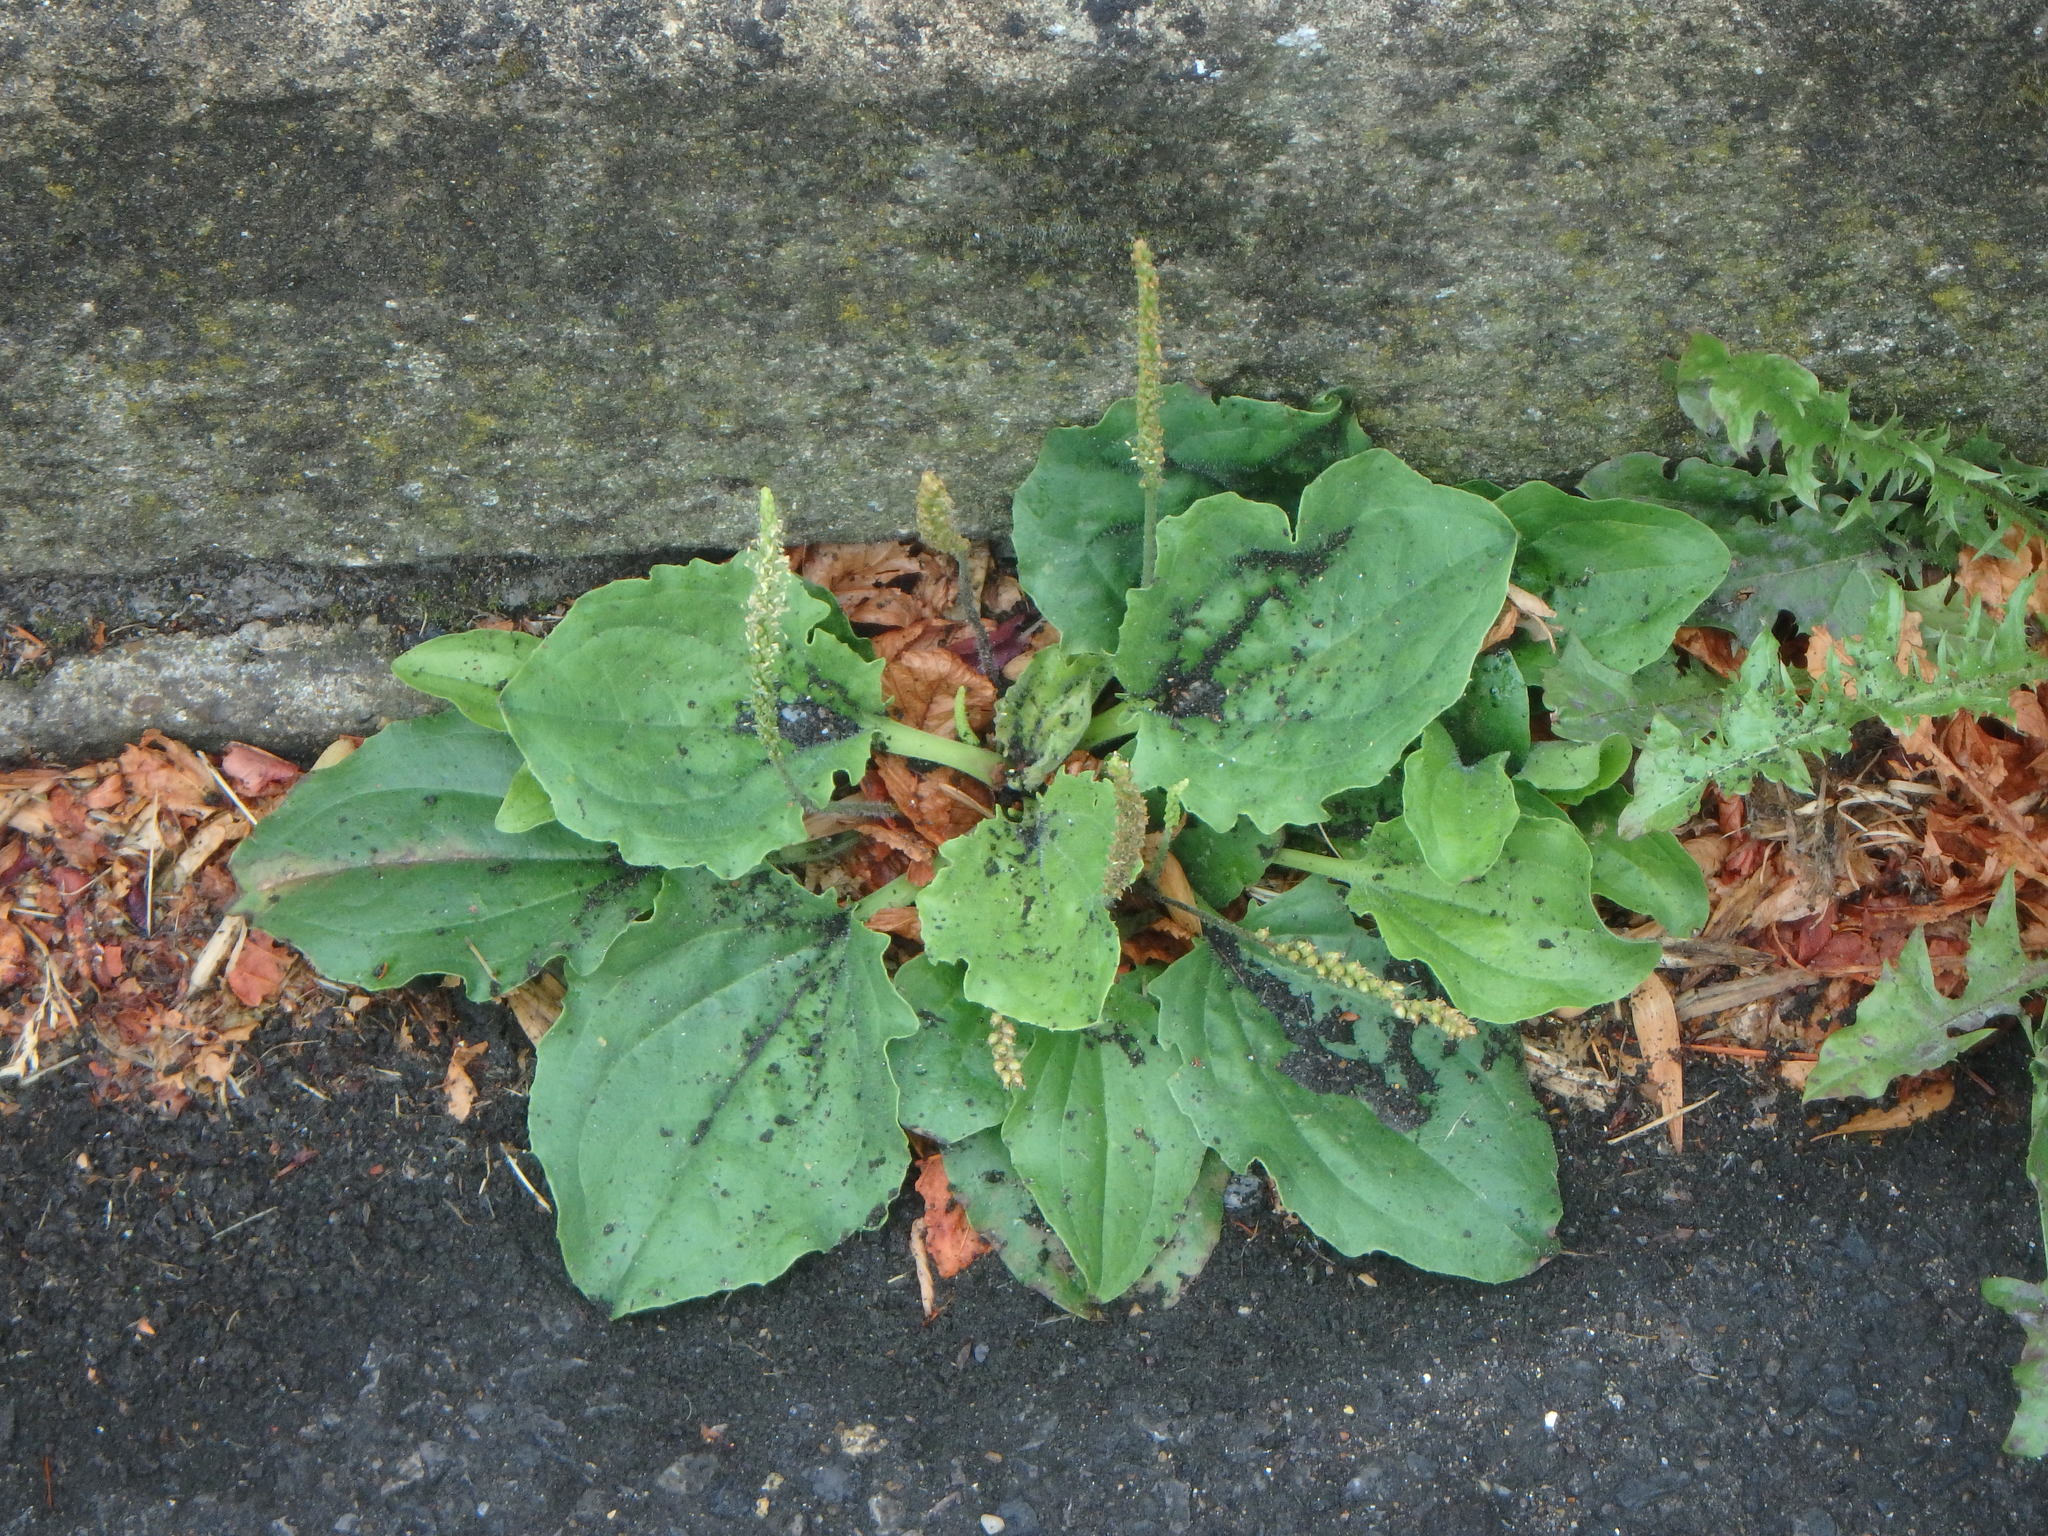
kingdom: Plantae
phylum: Tracheophyta
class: Magnoliopsida
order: Lamiales
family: Plantaginaceae
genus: Plantago
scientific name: Plantago major
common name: Common plantain
